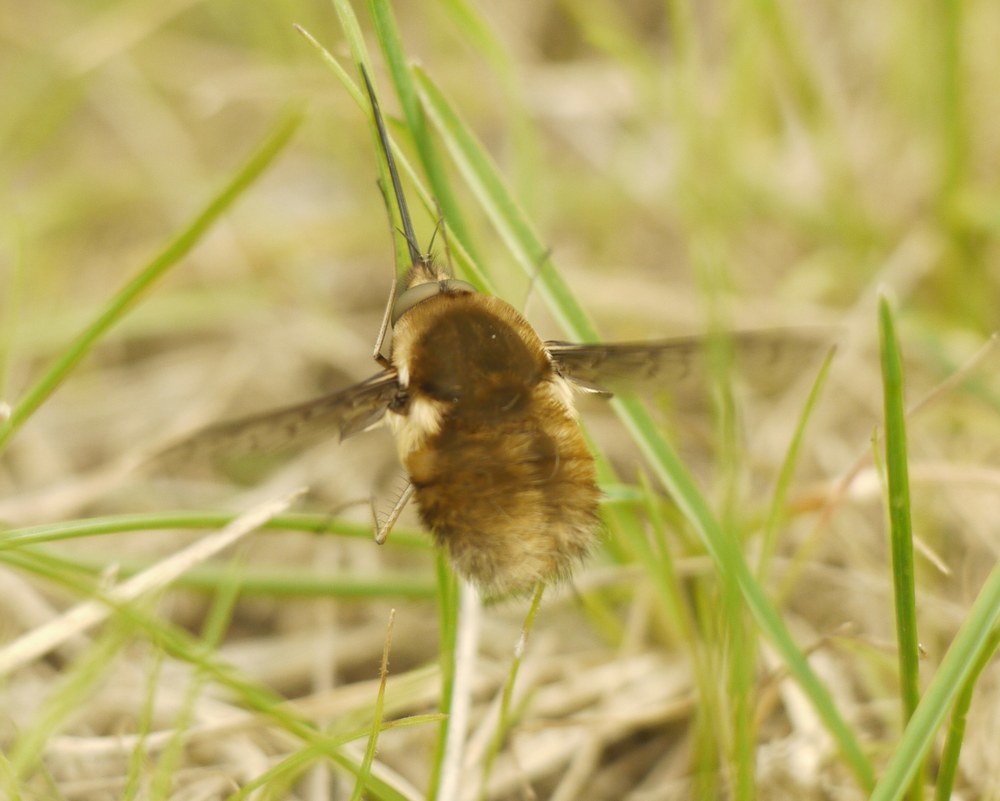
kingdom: Animalia
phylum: Arthropoda
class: Insecta
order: Diptera
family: Bombyliidae
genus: Bombylius
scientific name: Bombylius medius
